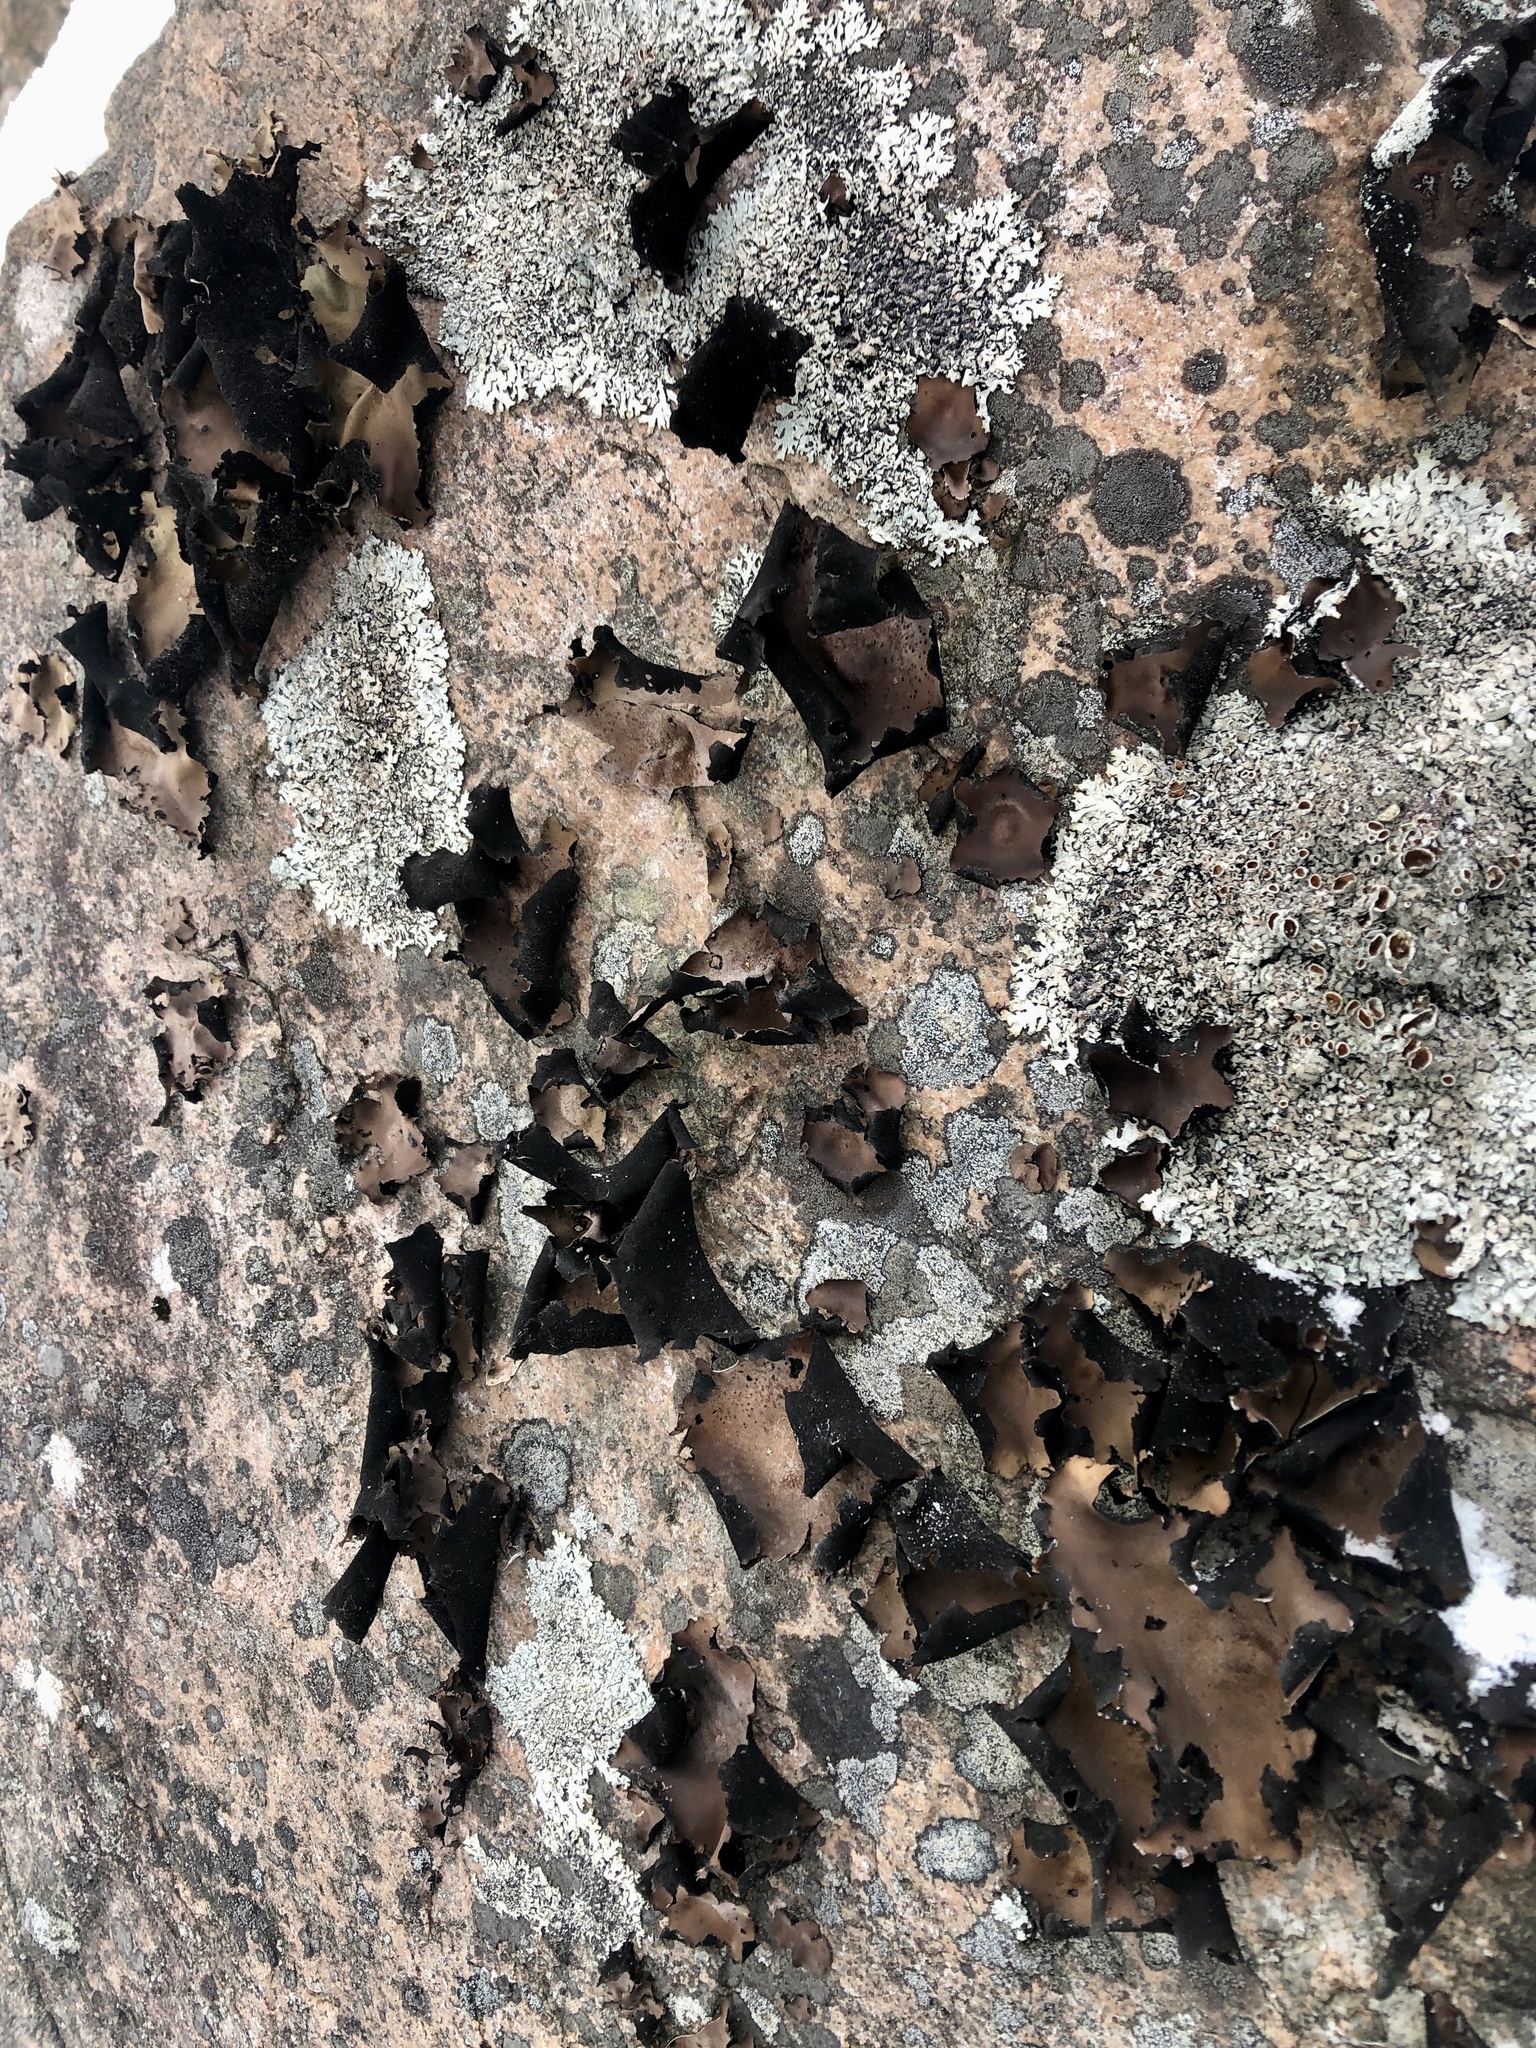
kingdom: Fungi
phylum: Ascomycota
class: Lecanoromycetes
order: Umbilicariales
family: Umbilicariaceae
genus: Umbilicaria
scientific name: Umbilicaria mammulata
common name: Smooth rock tripe
